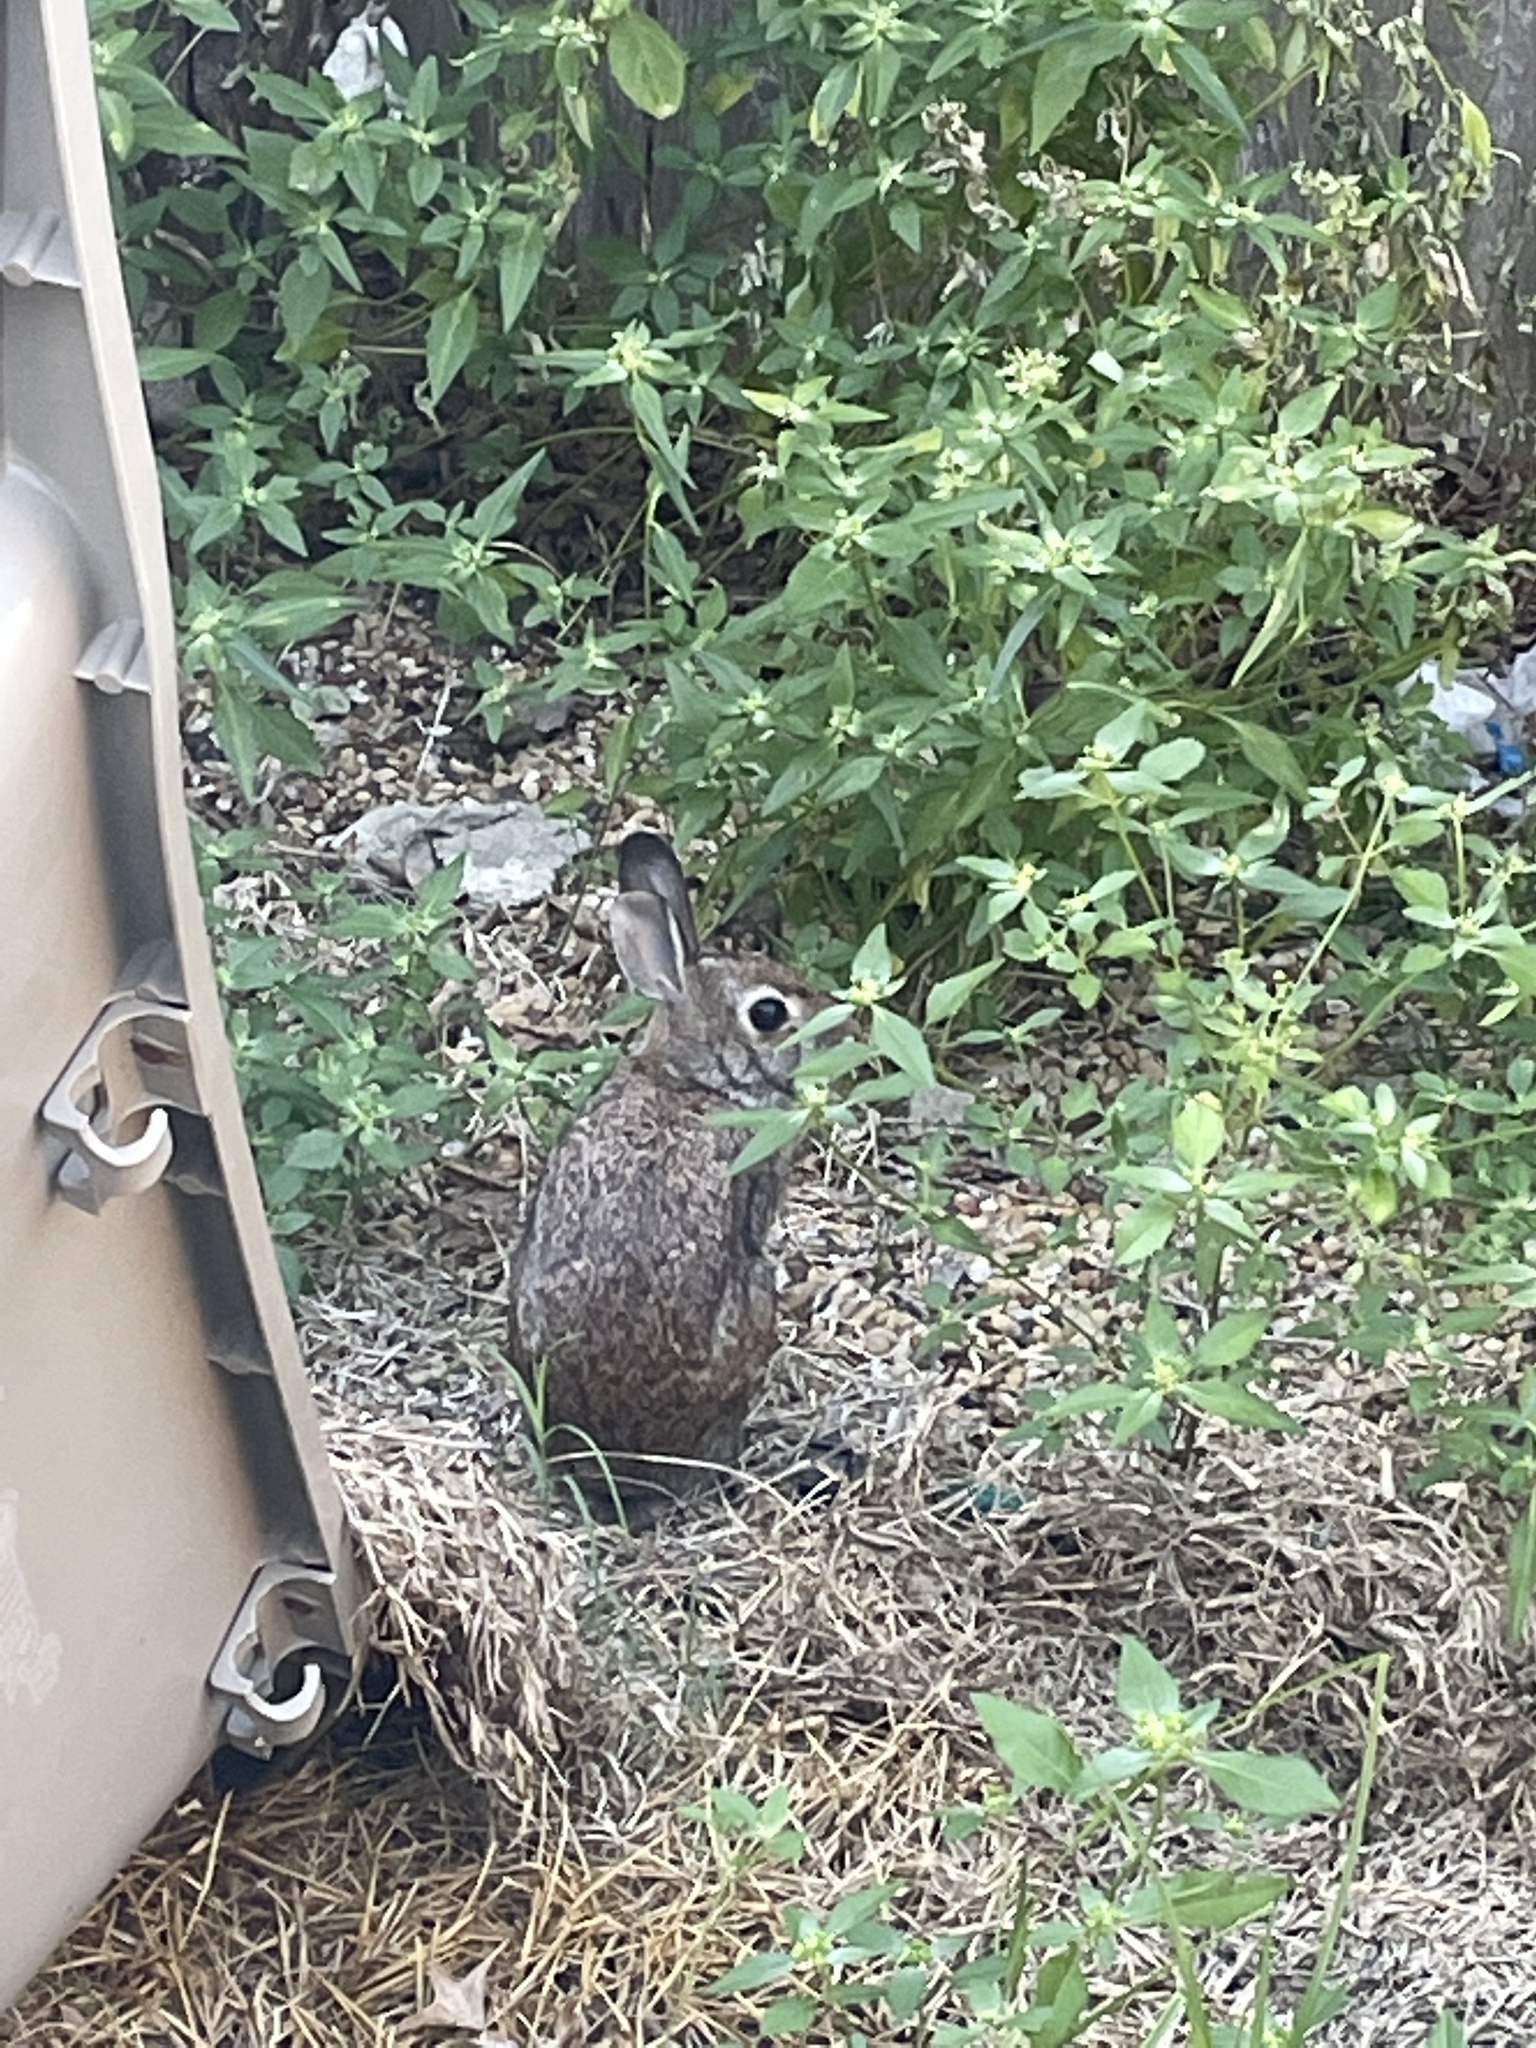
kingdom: Animalia
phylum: Chordata
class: Mammalia
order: Lagomorpha
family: Leporidae
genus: Sylvilagus
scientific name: Sylvilagus floridanus
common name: Eastern cottontail
